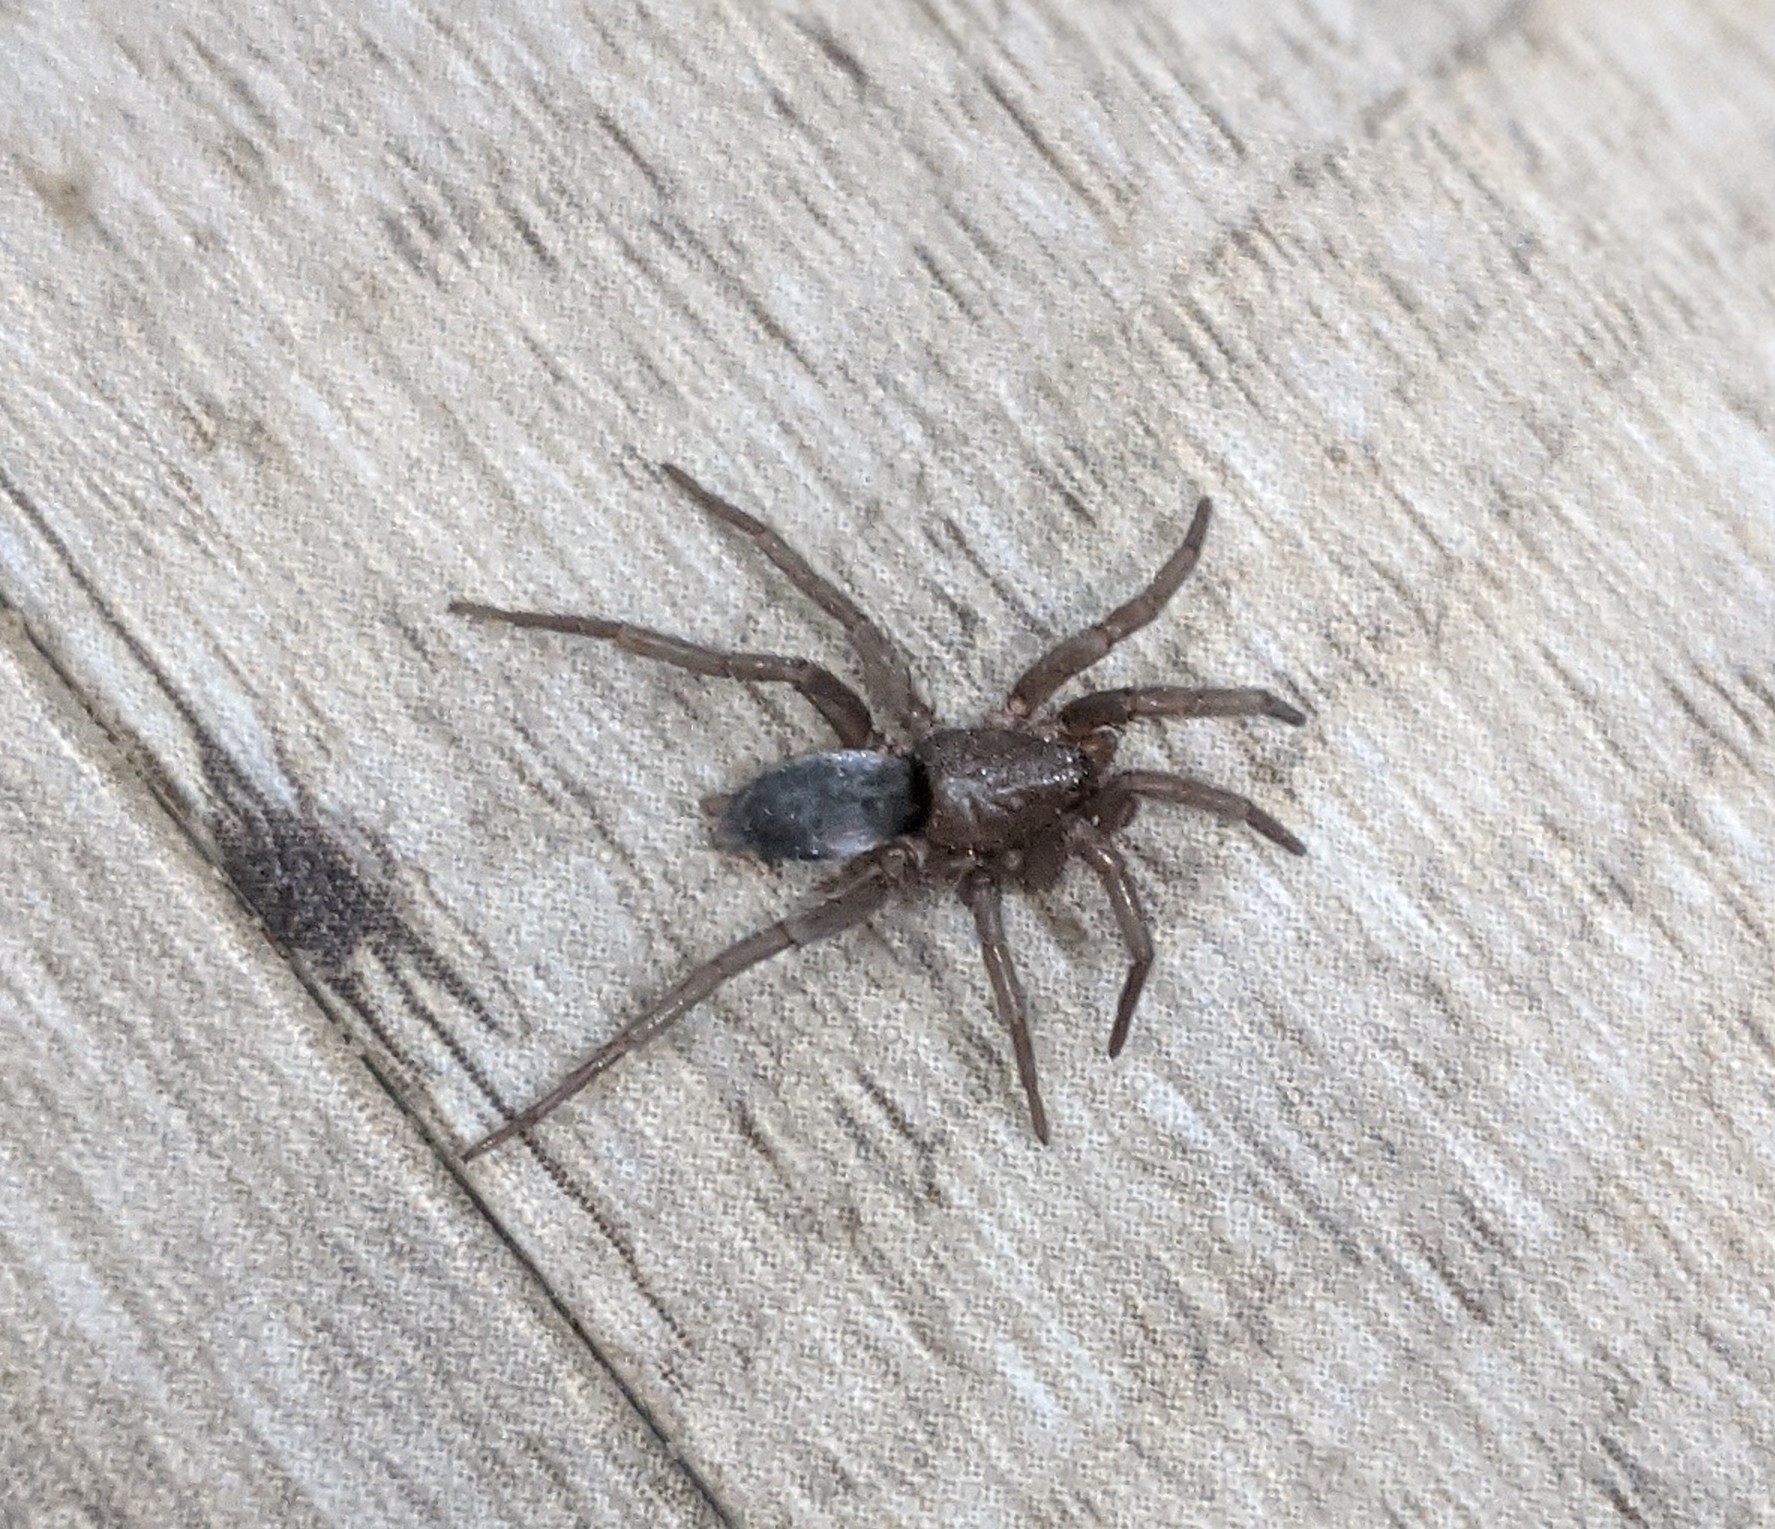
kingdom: Animalia
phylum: Arthropoda
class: Arachnida
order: Araneae
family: Gnaphosidae
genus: Scotophaeus
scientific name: Scotophaeus blackwalli
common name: Mouse spider
